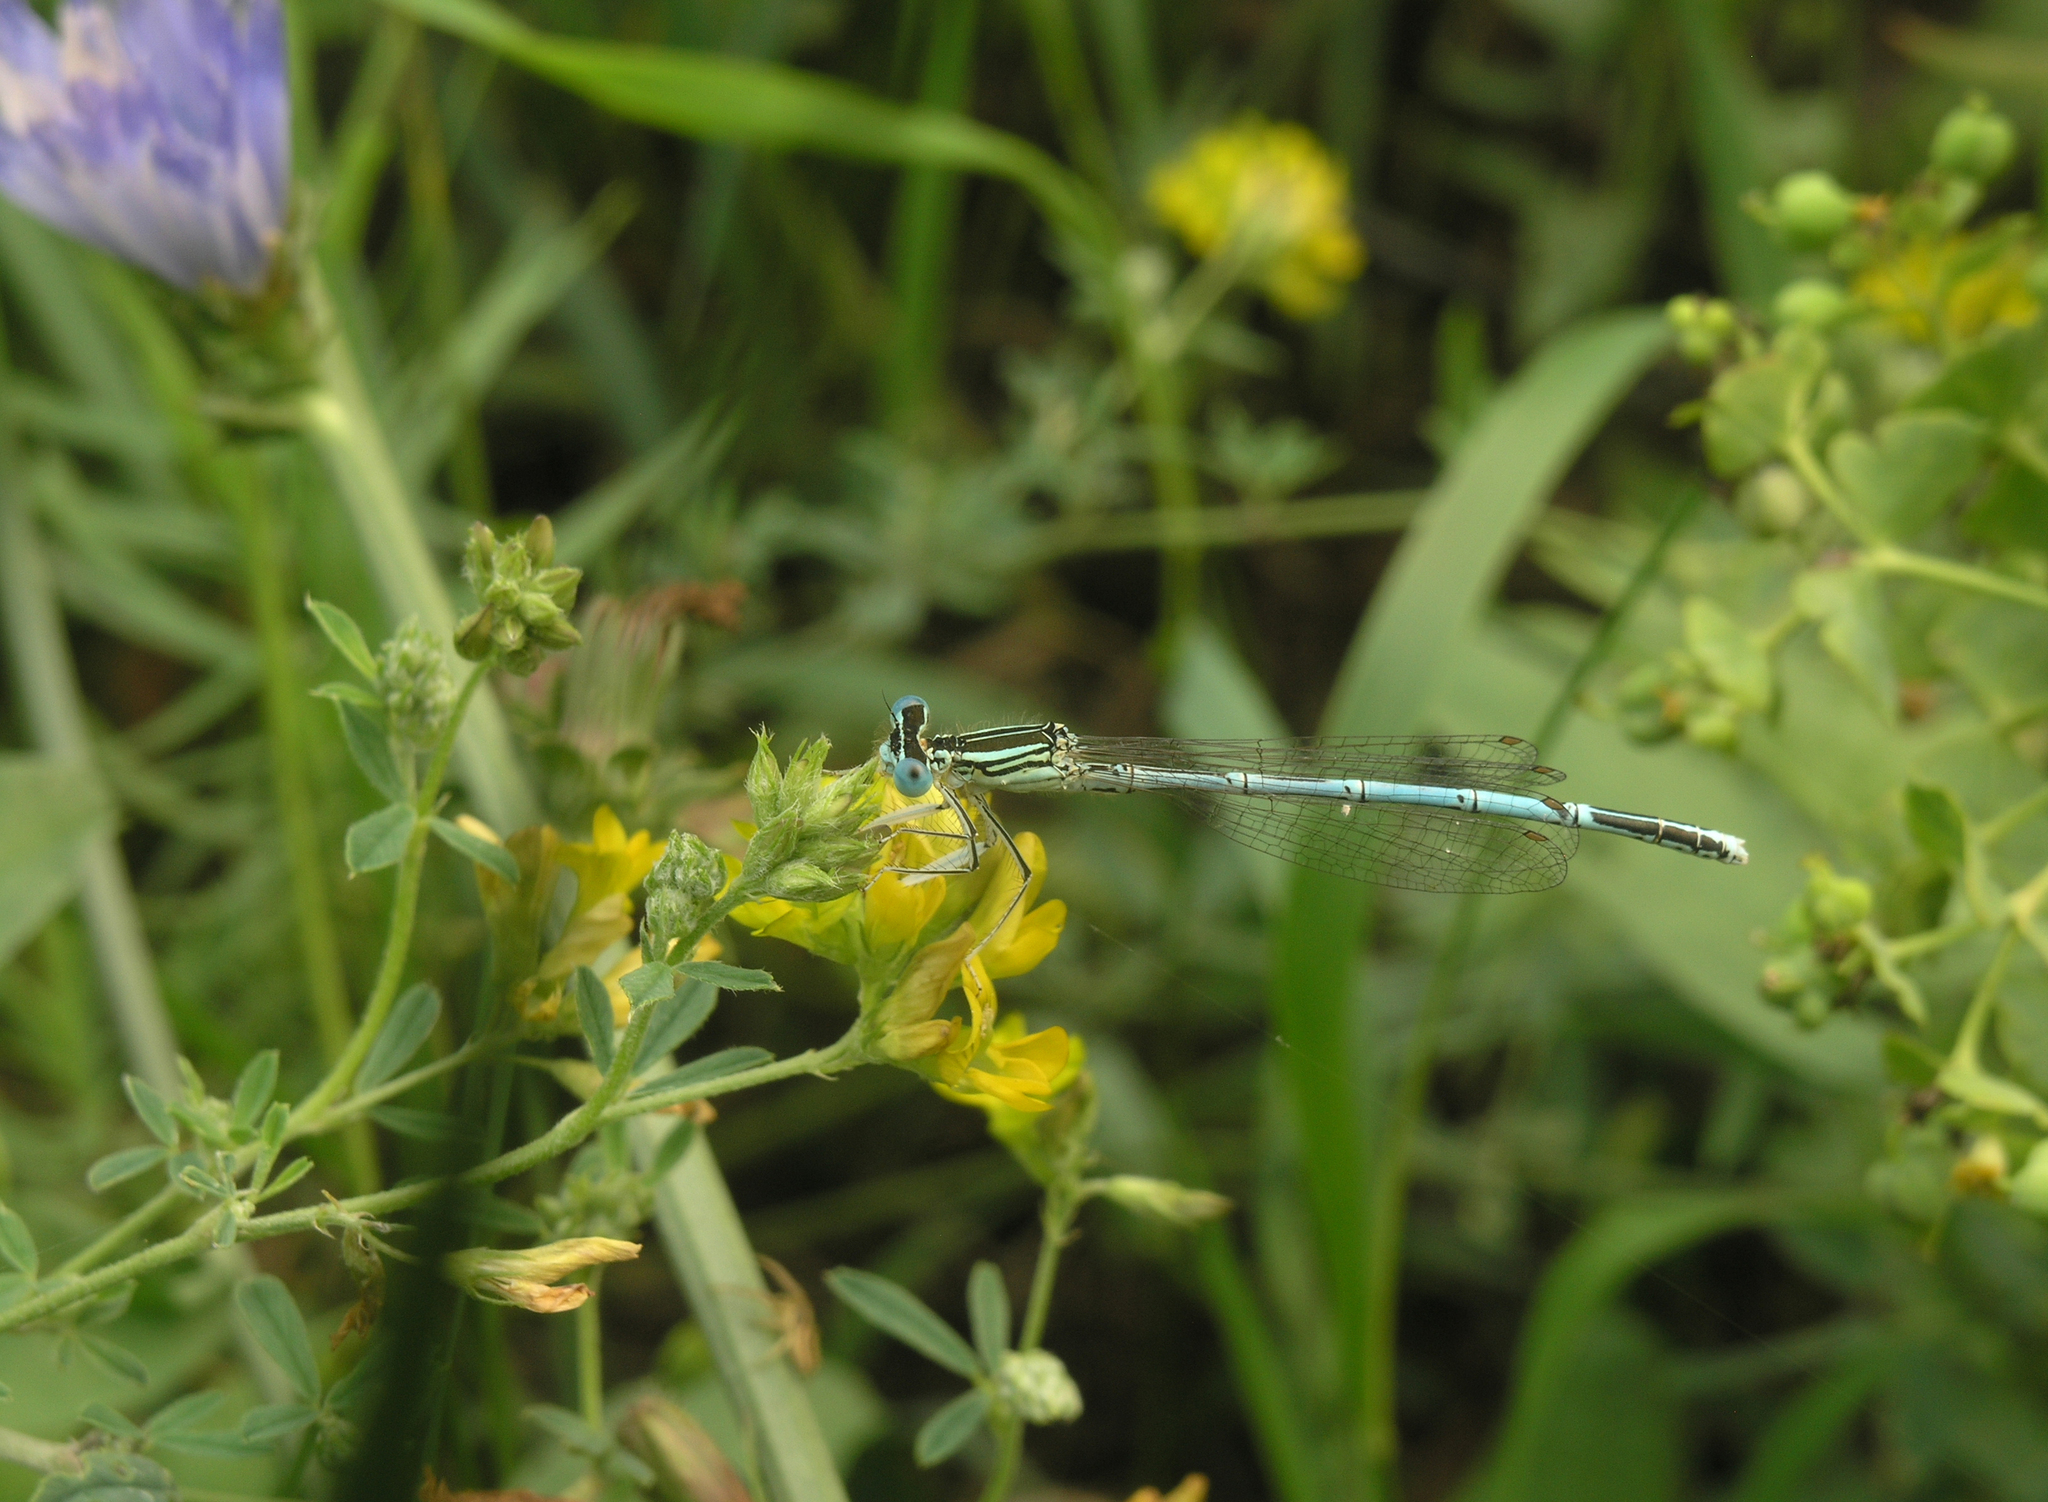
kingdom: Animalia
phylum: Arthropoda
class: Insecta
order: Odonata
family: Platycnemididae
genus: Platycnemis
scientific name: Platycnemis pennipes
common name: White-legged damselfly
